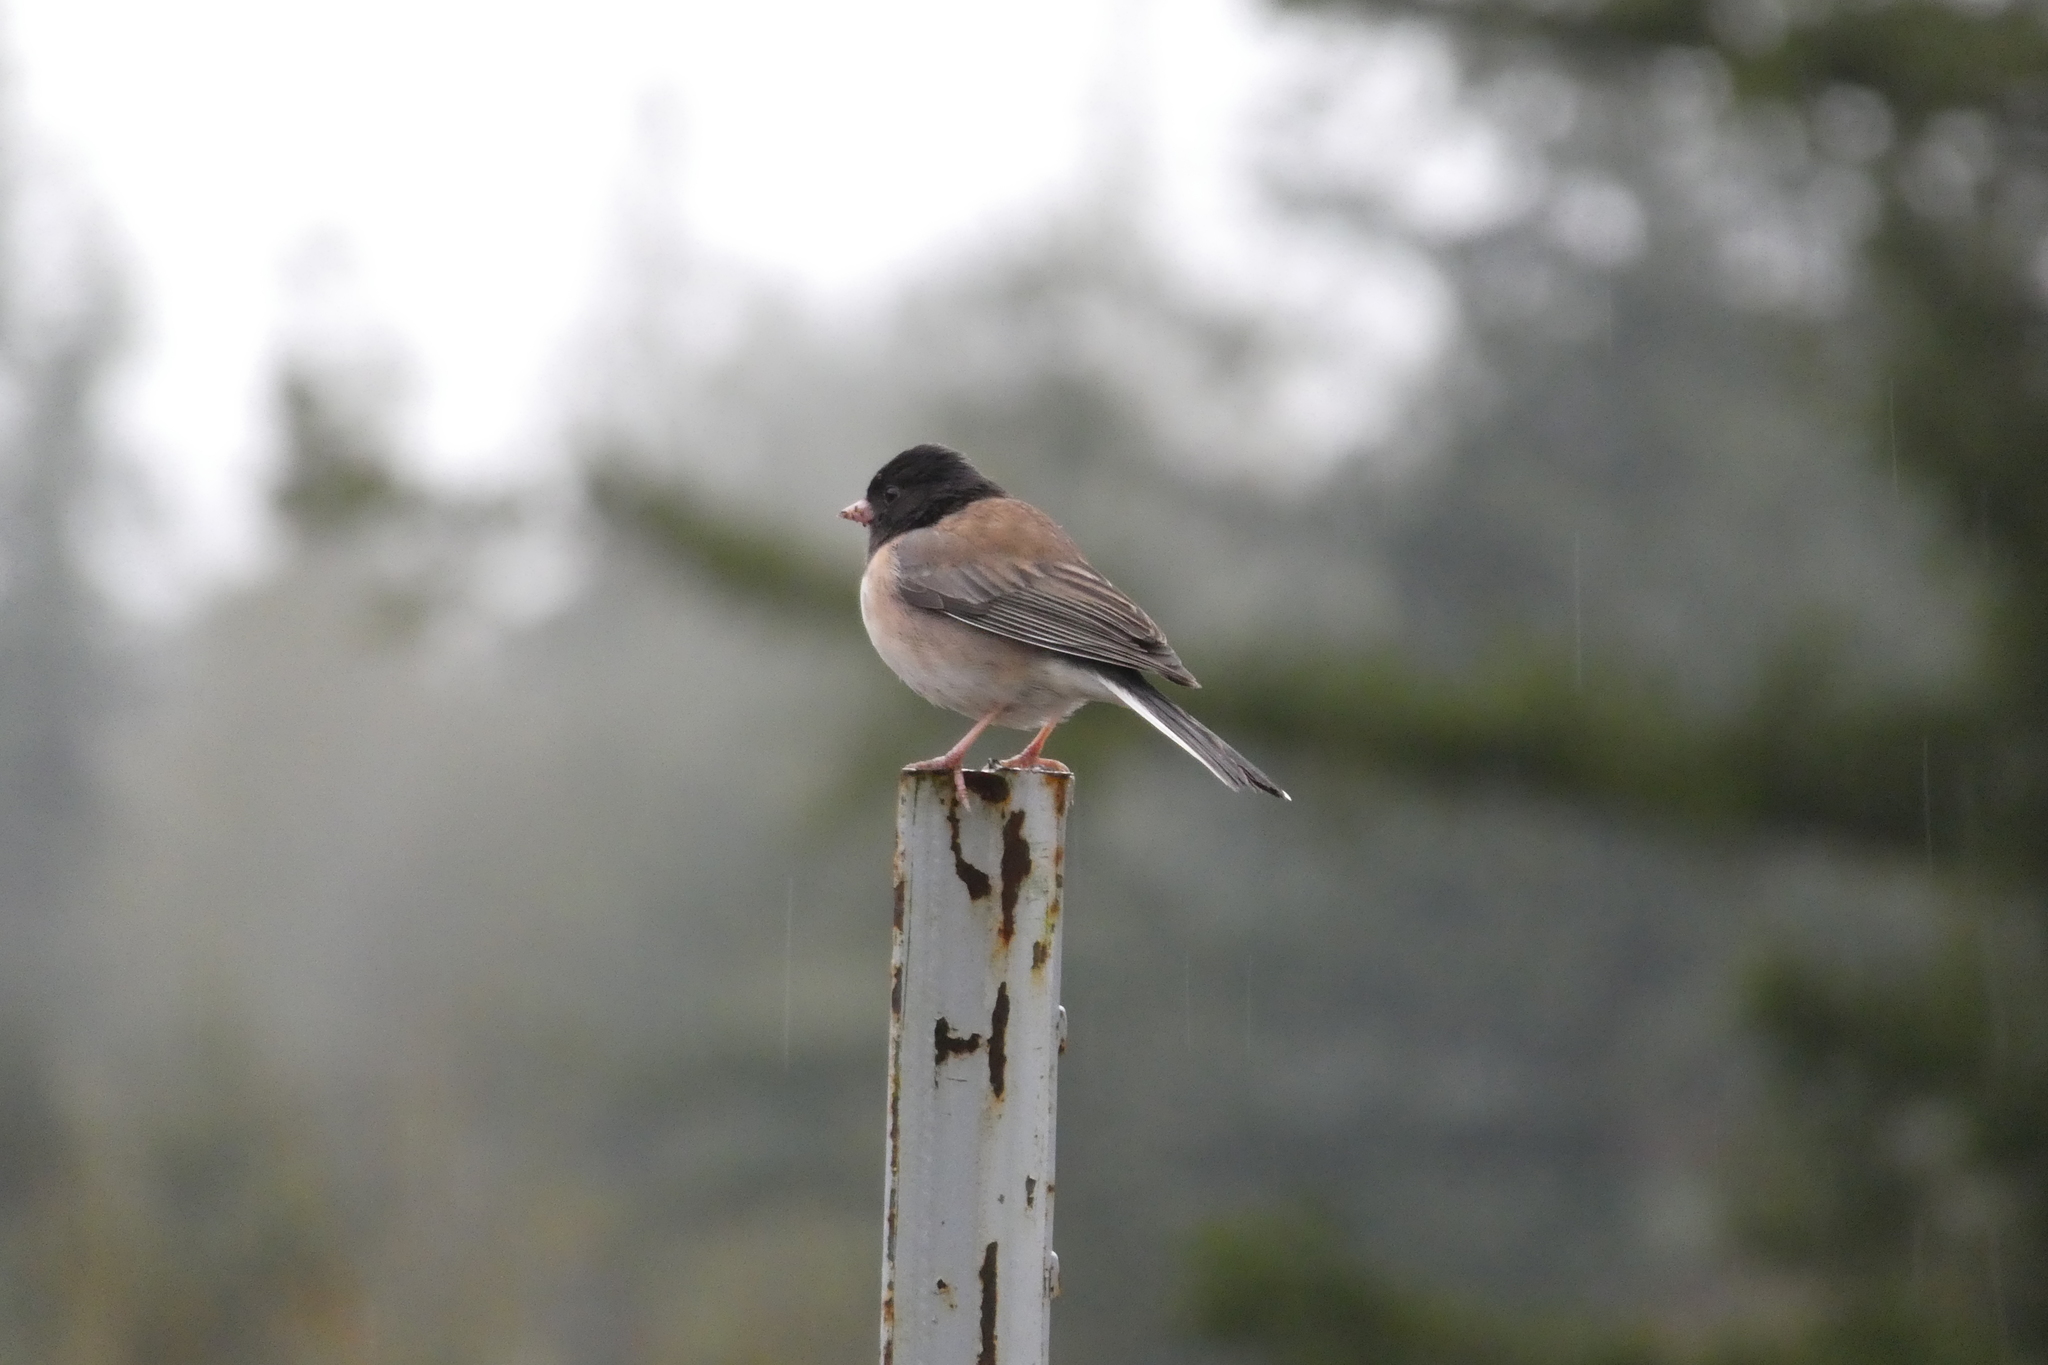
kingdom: Animalia
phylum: Chordata
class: Aves
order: Passeriformes
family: Passerellidae
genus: Junco
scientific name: Junco hyemalis
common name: Dark-eyed junco
